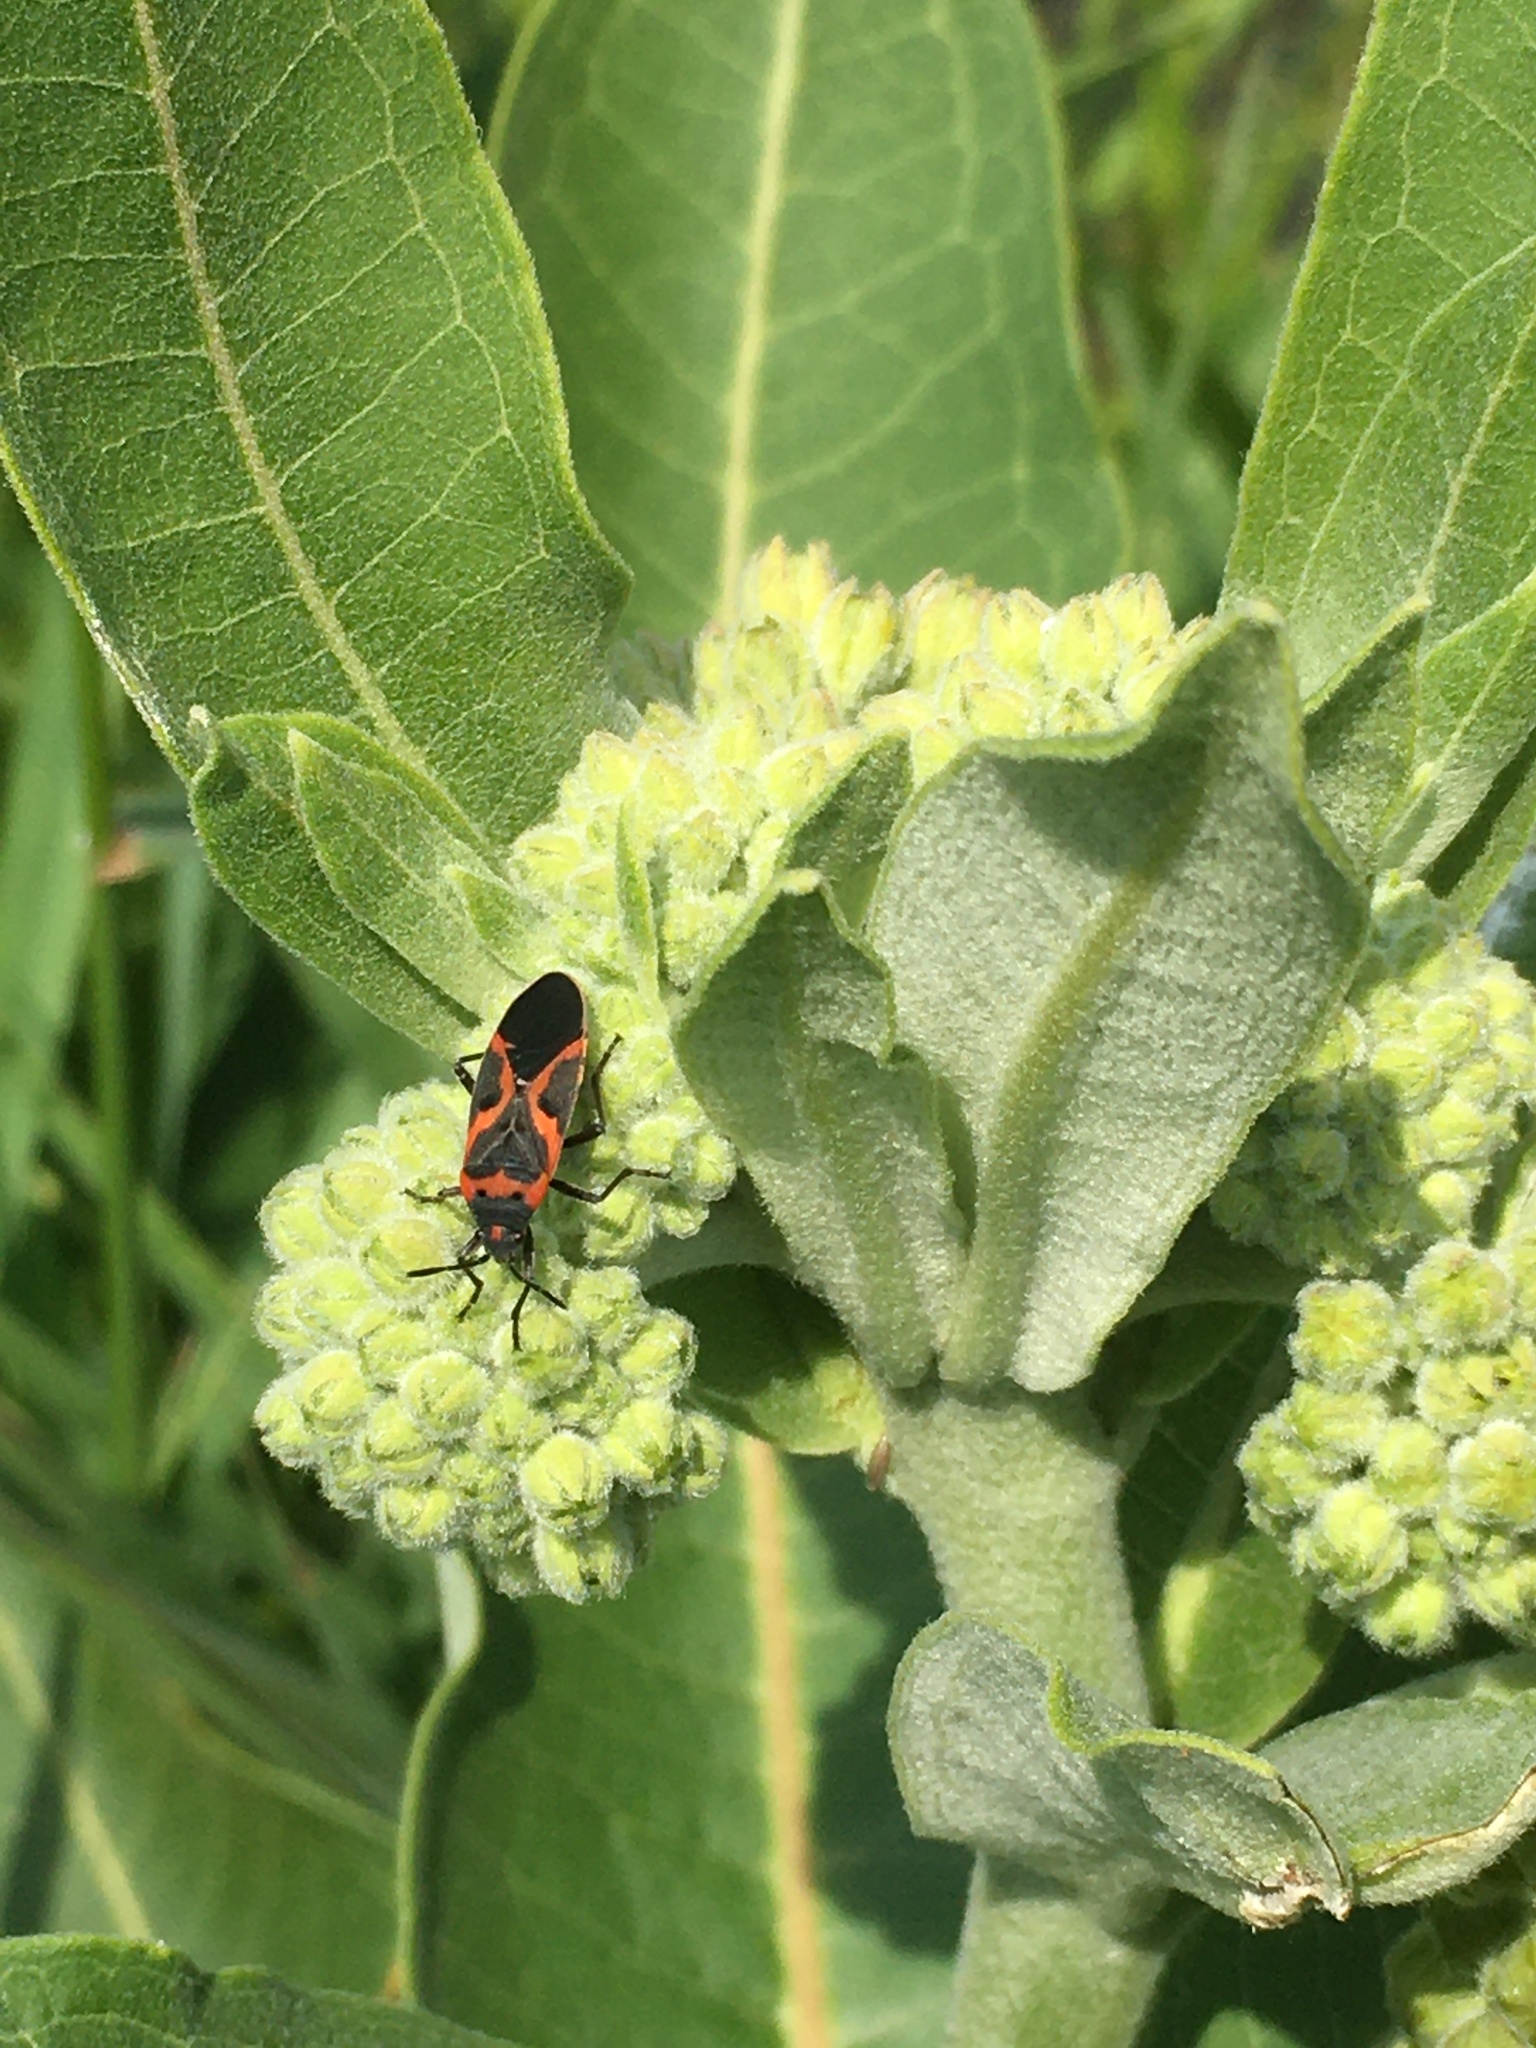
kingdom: Animalia
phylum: Arthropoda
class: Insecta
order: Hemiptera
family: Lygaeidae
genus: Lygaeus
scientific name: Lygaeus kalmii
